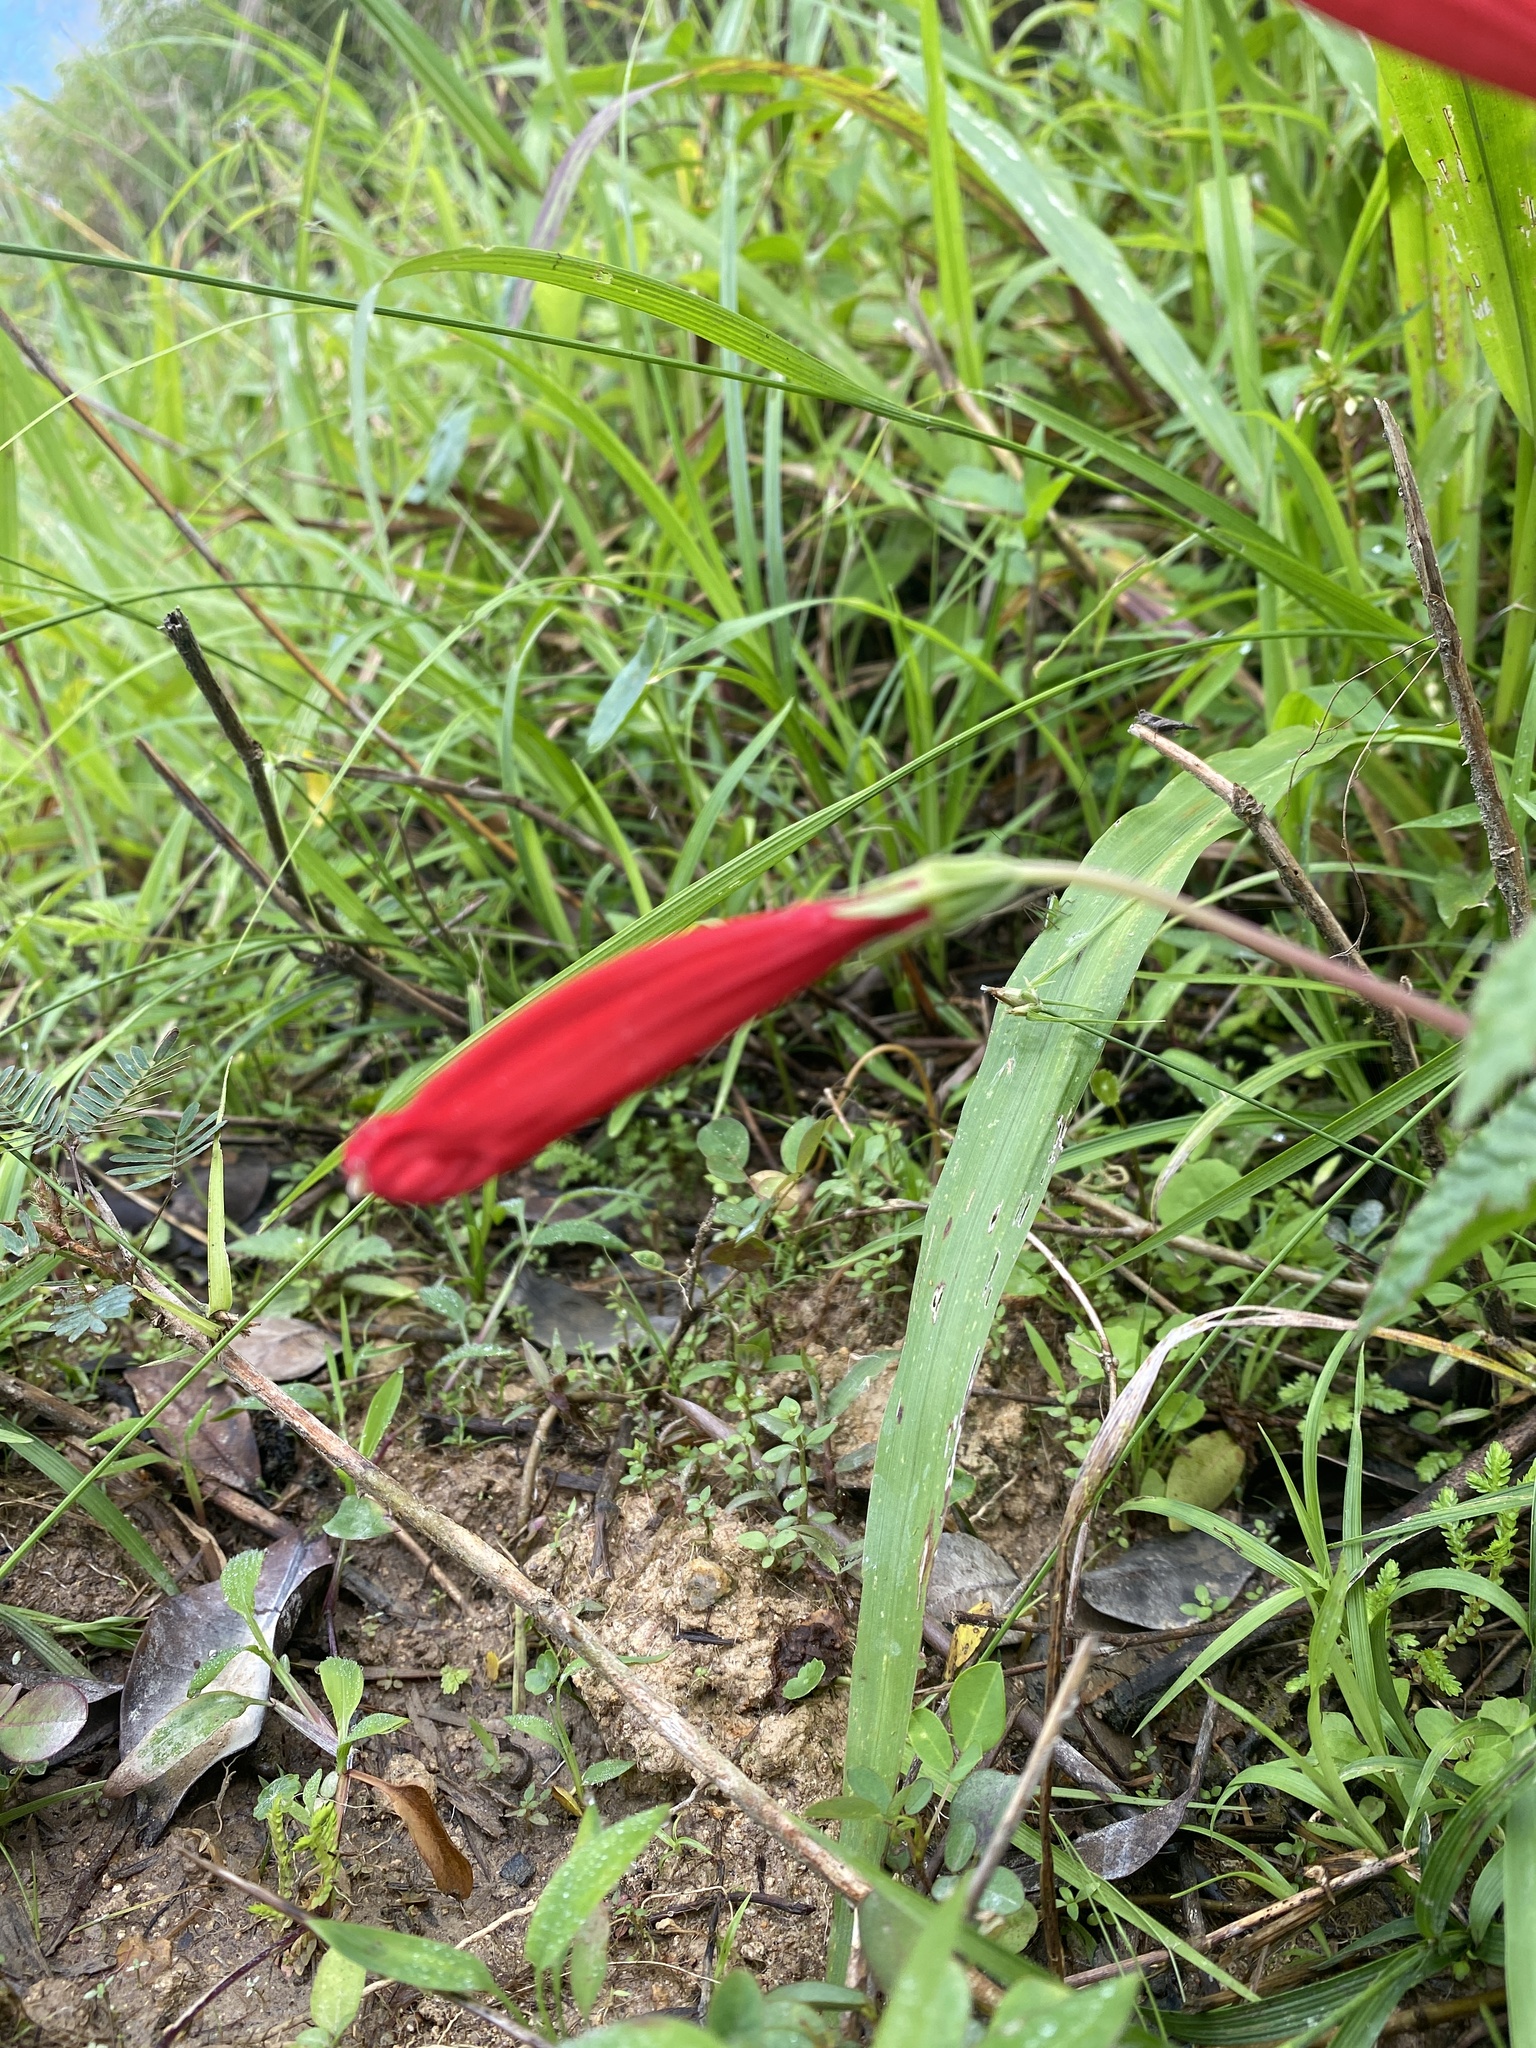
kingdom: Plantae
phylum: Tracheophyta
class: Magnoliopsida
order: Asterales
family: Campanulaceae
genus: Centropogon
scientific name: Centropogon coccineus
